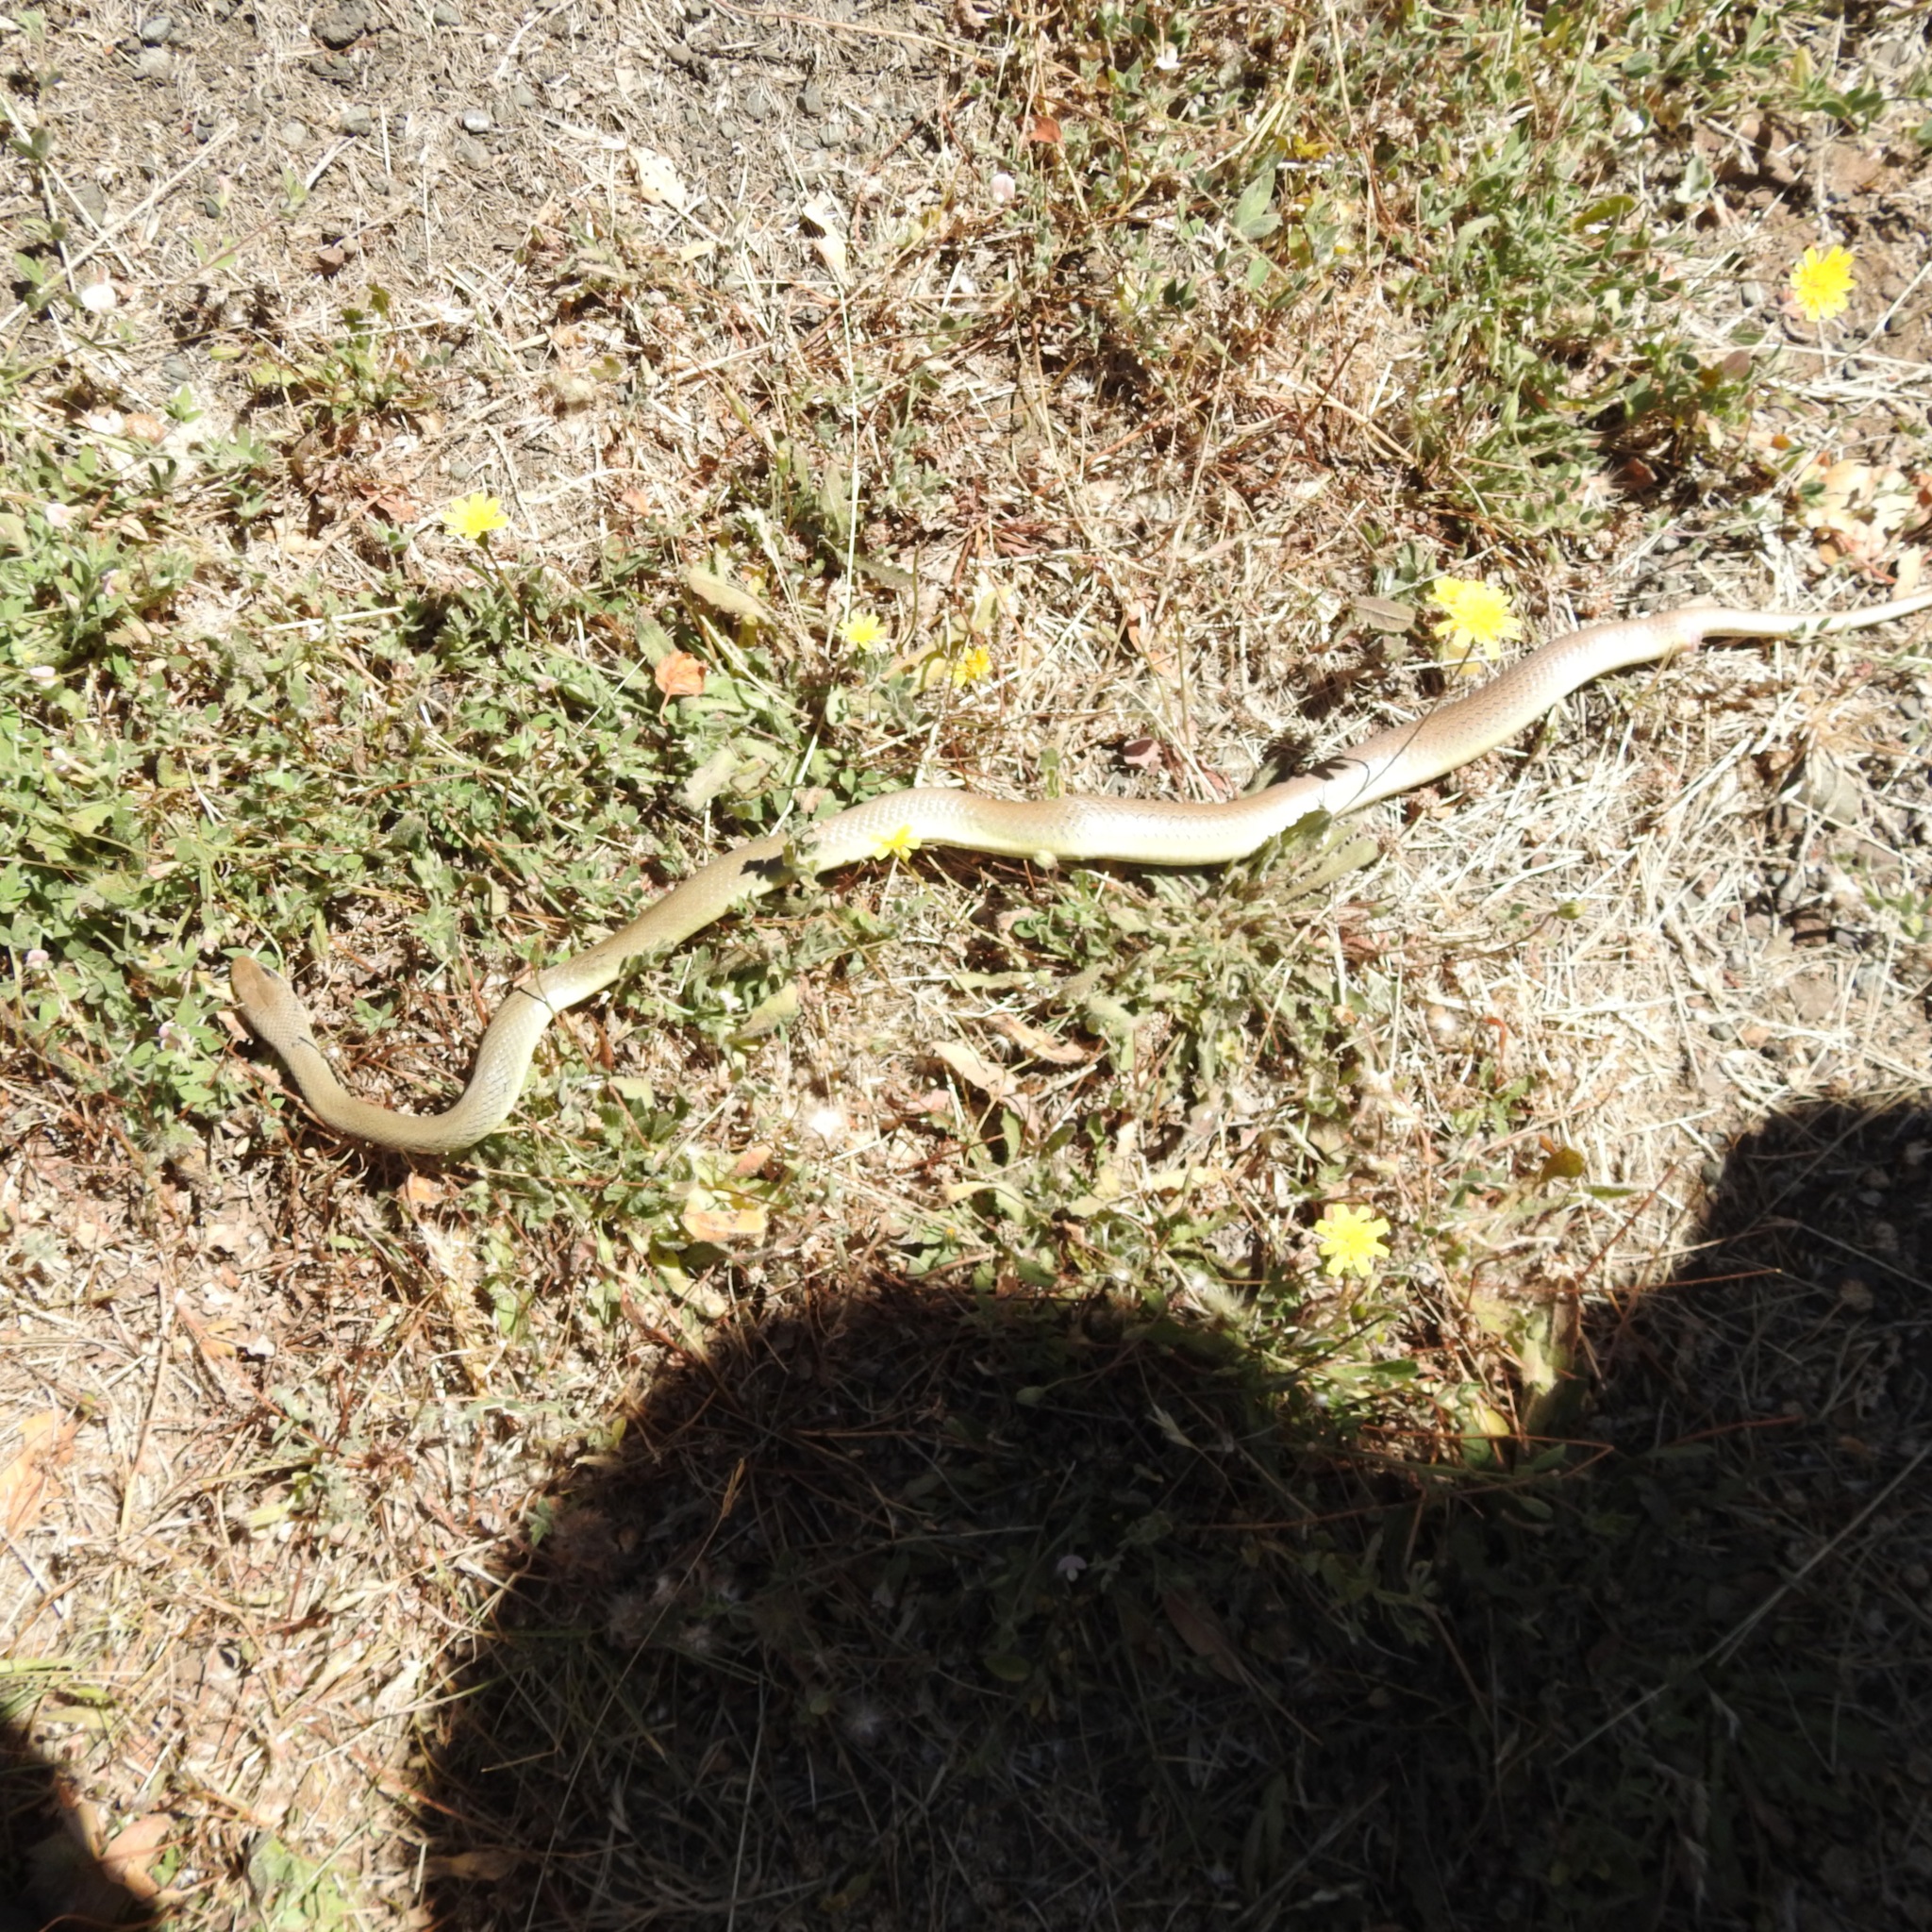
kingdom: Animalia
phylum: Chordata
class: Squamata
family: Colubridae
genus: Coluber
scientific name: Coluber constrictor
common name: Eastern racer
